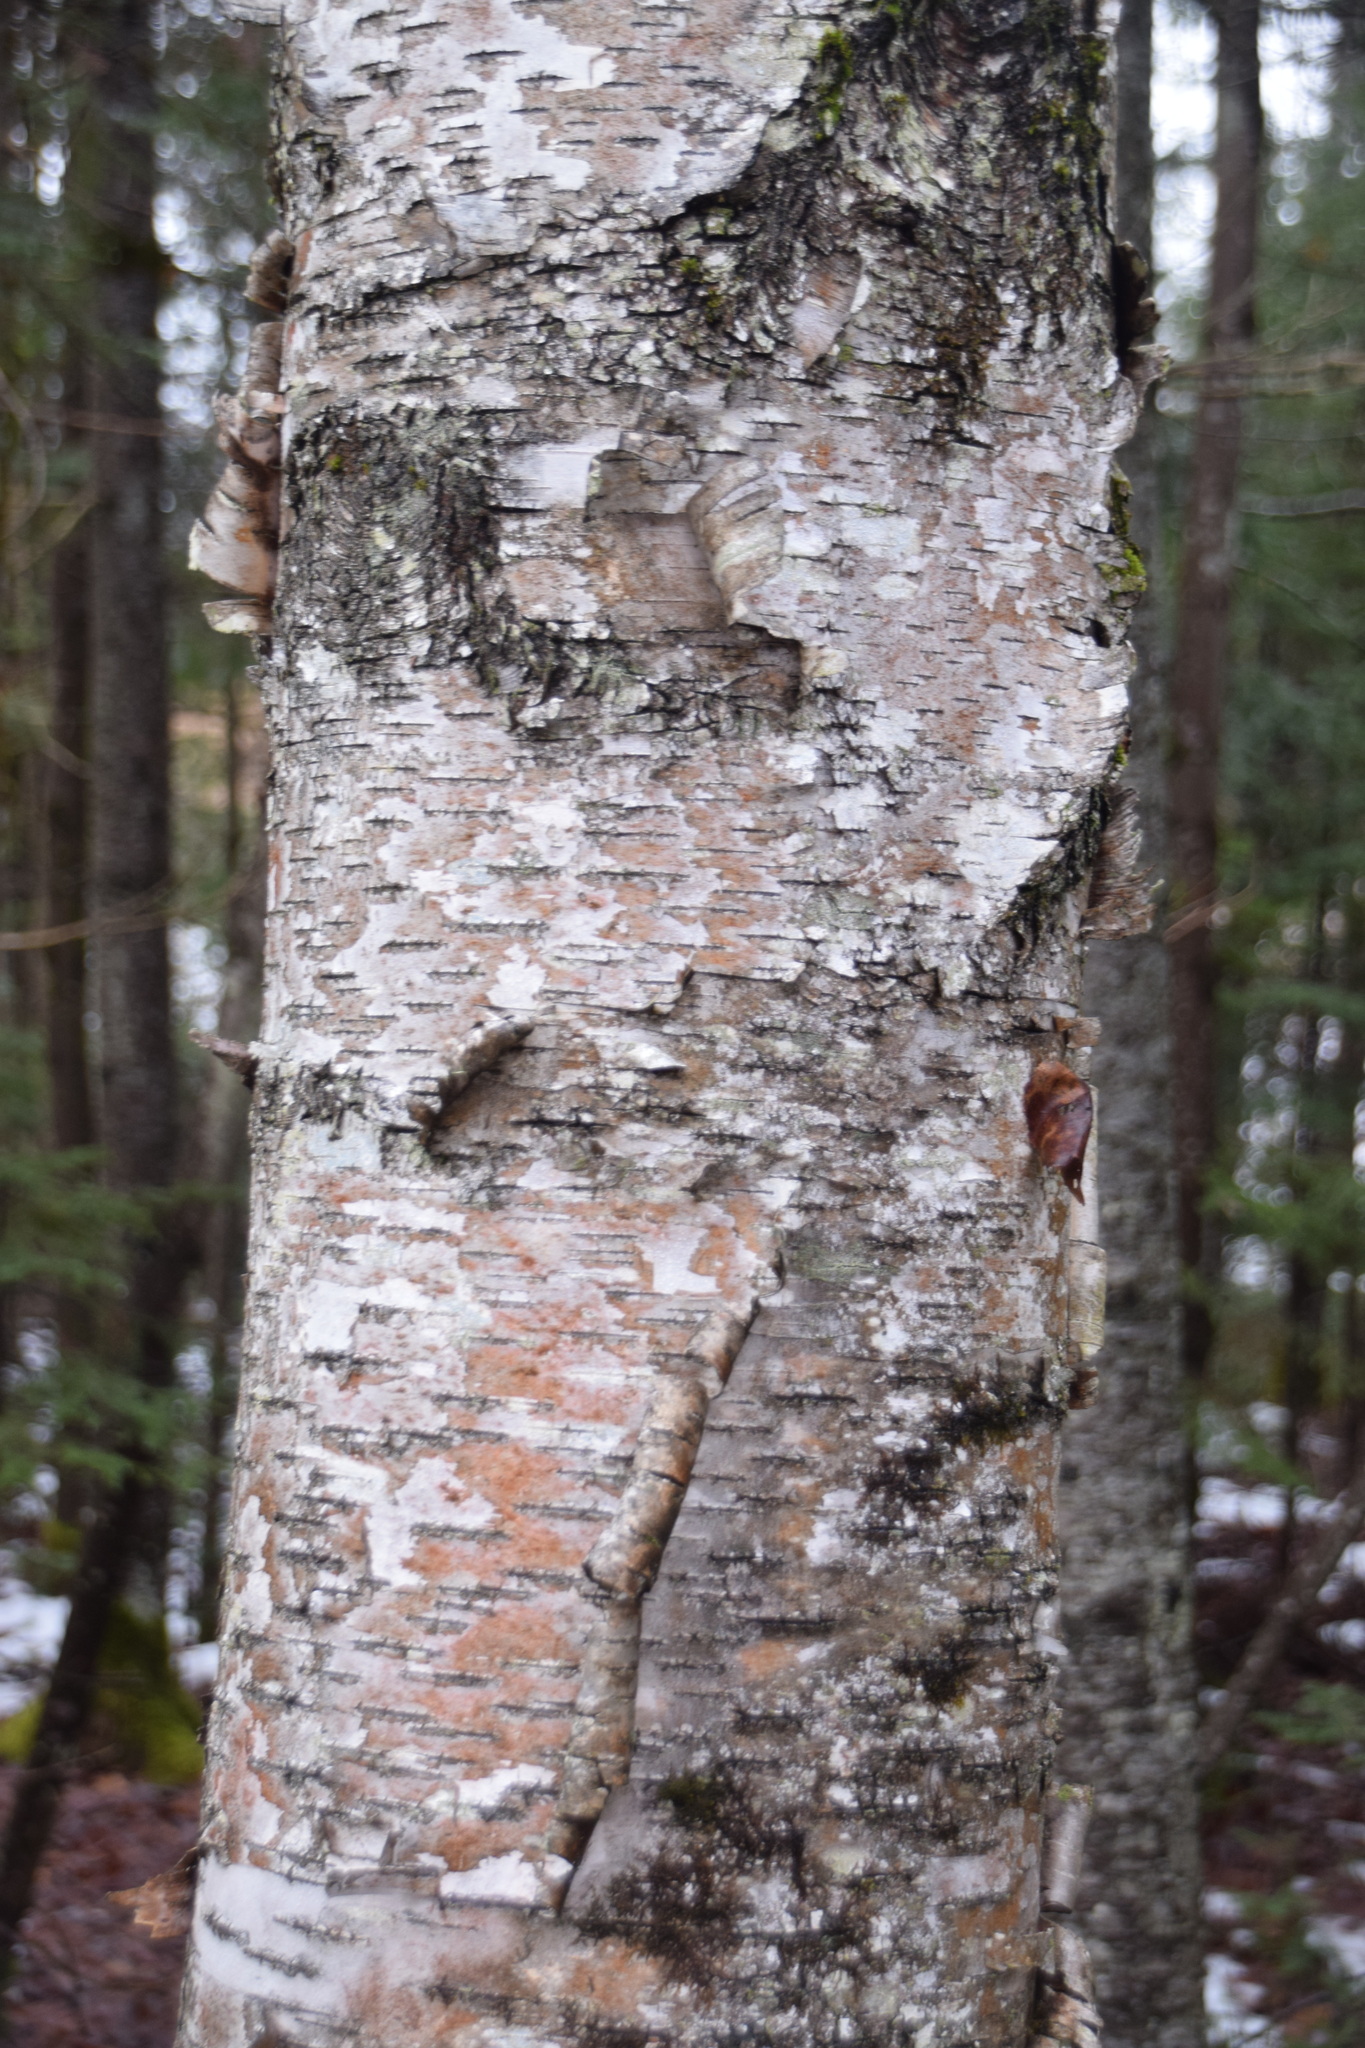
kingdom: Plantae
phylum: Tracheophyta
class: Magnoliopsida
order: Fagales
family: Betulaceae
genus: Betula
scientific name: Betula papyrifera
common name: Paper birch
